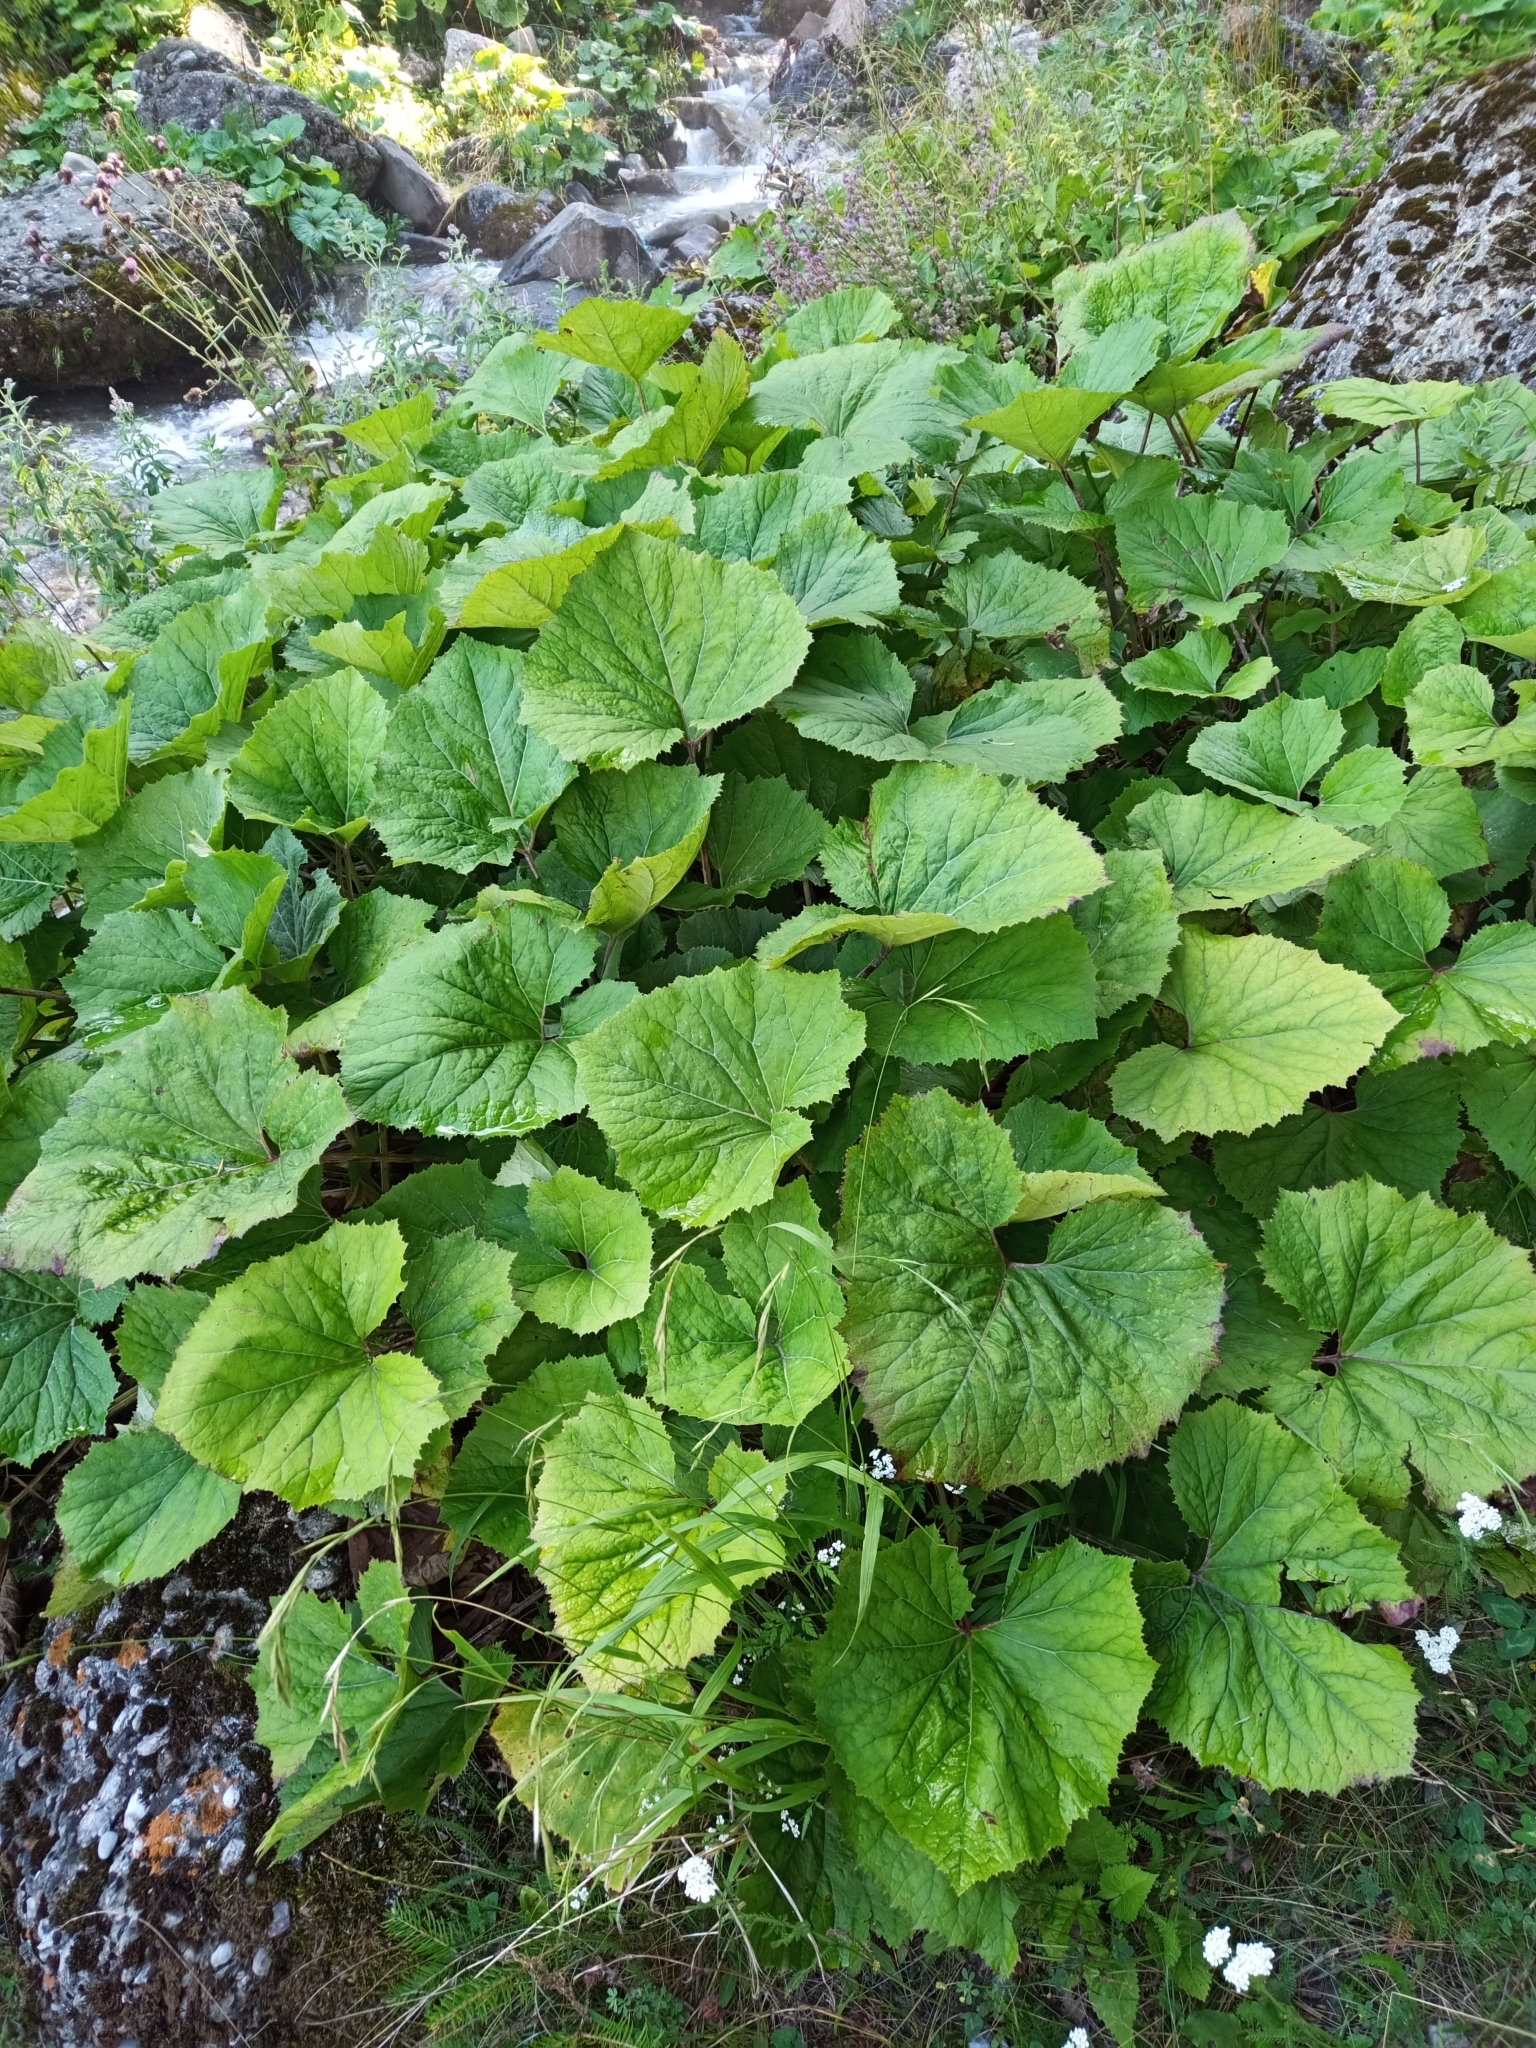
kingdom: Plantae
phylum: Tracheophyta
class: Magnoliopsida
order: Asterales
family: Asteraceae
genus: Petasites
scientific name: Petasites japonicus
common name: Giant butterbur
